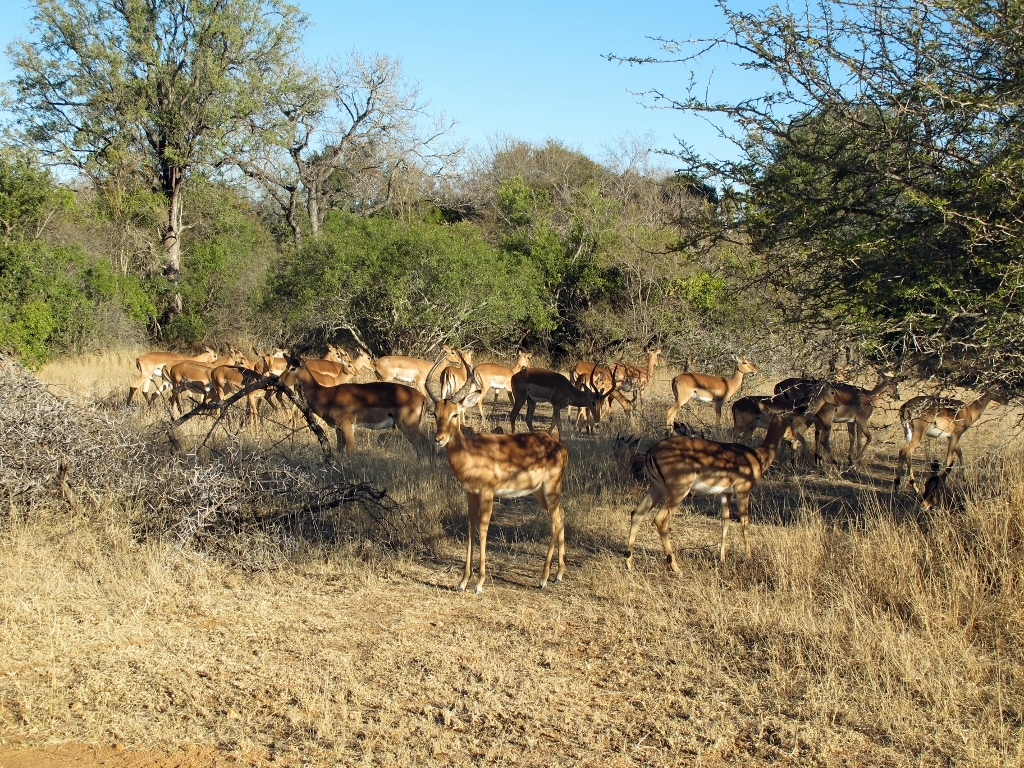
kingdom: Animalia
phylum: Chordata
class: Mammalia
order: Artiodactyla
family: Bovidae
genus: Aepyceros
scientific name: Aepyceros melampus
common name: Impala
